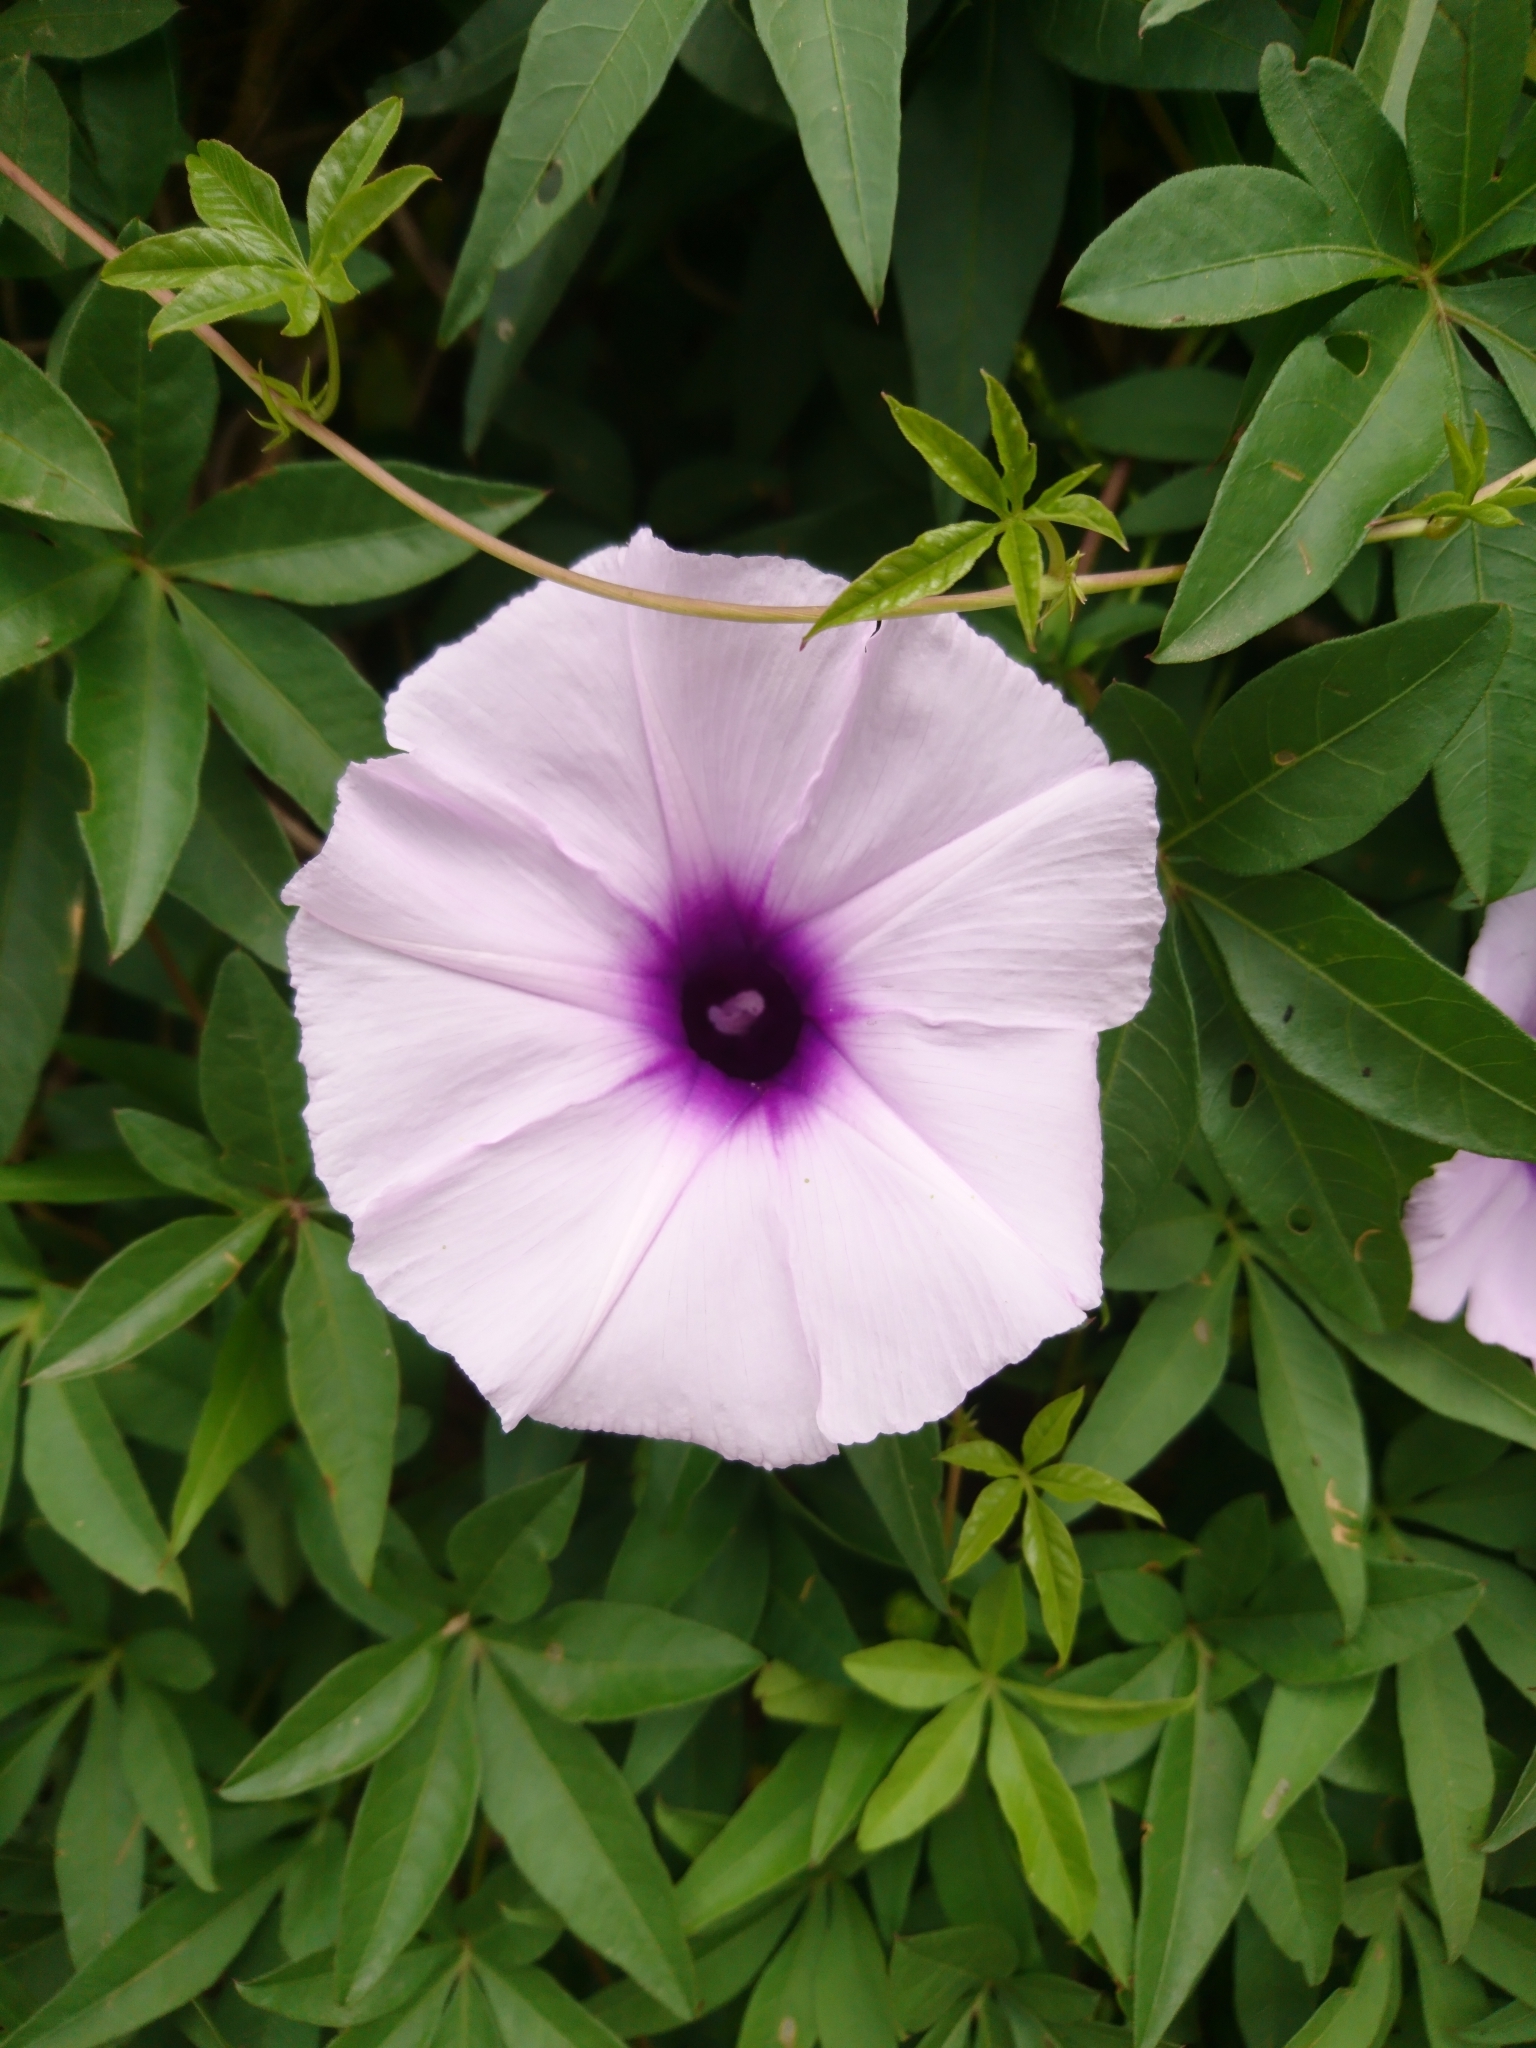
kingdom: Plantae
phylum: Tracheophyta
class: Magnoliopsida
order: Solanales
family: Convolvulaceae
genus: Ipomoea
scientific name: Ipomoea cairica
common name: Mile a minute vine
